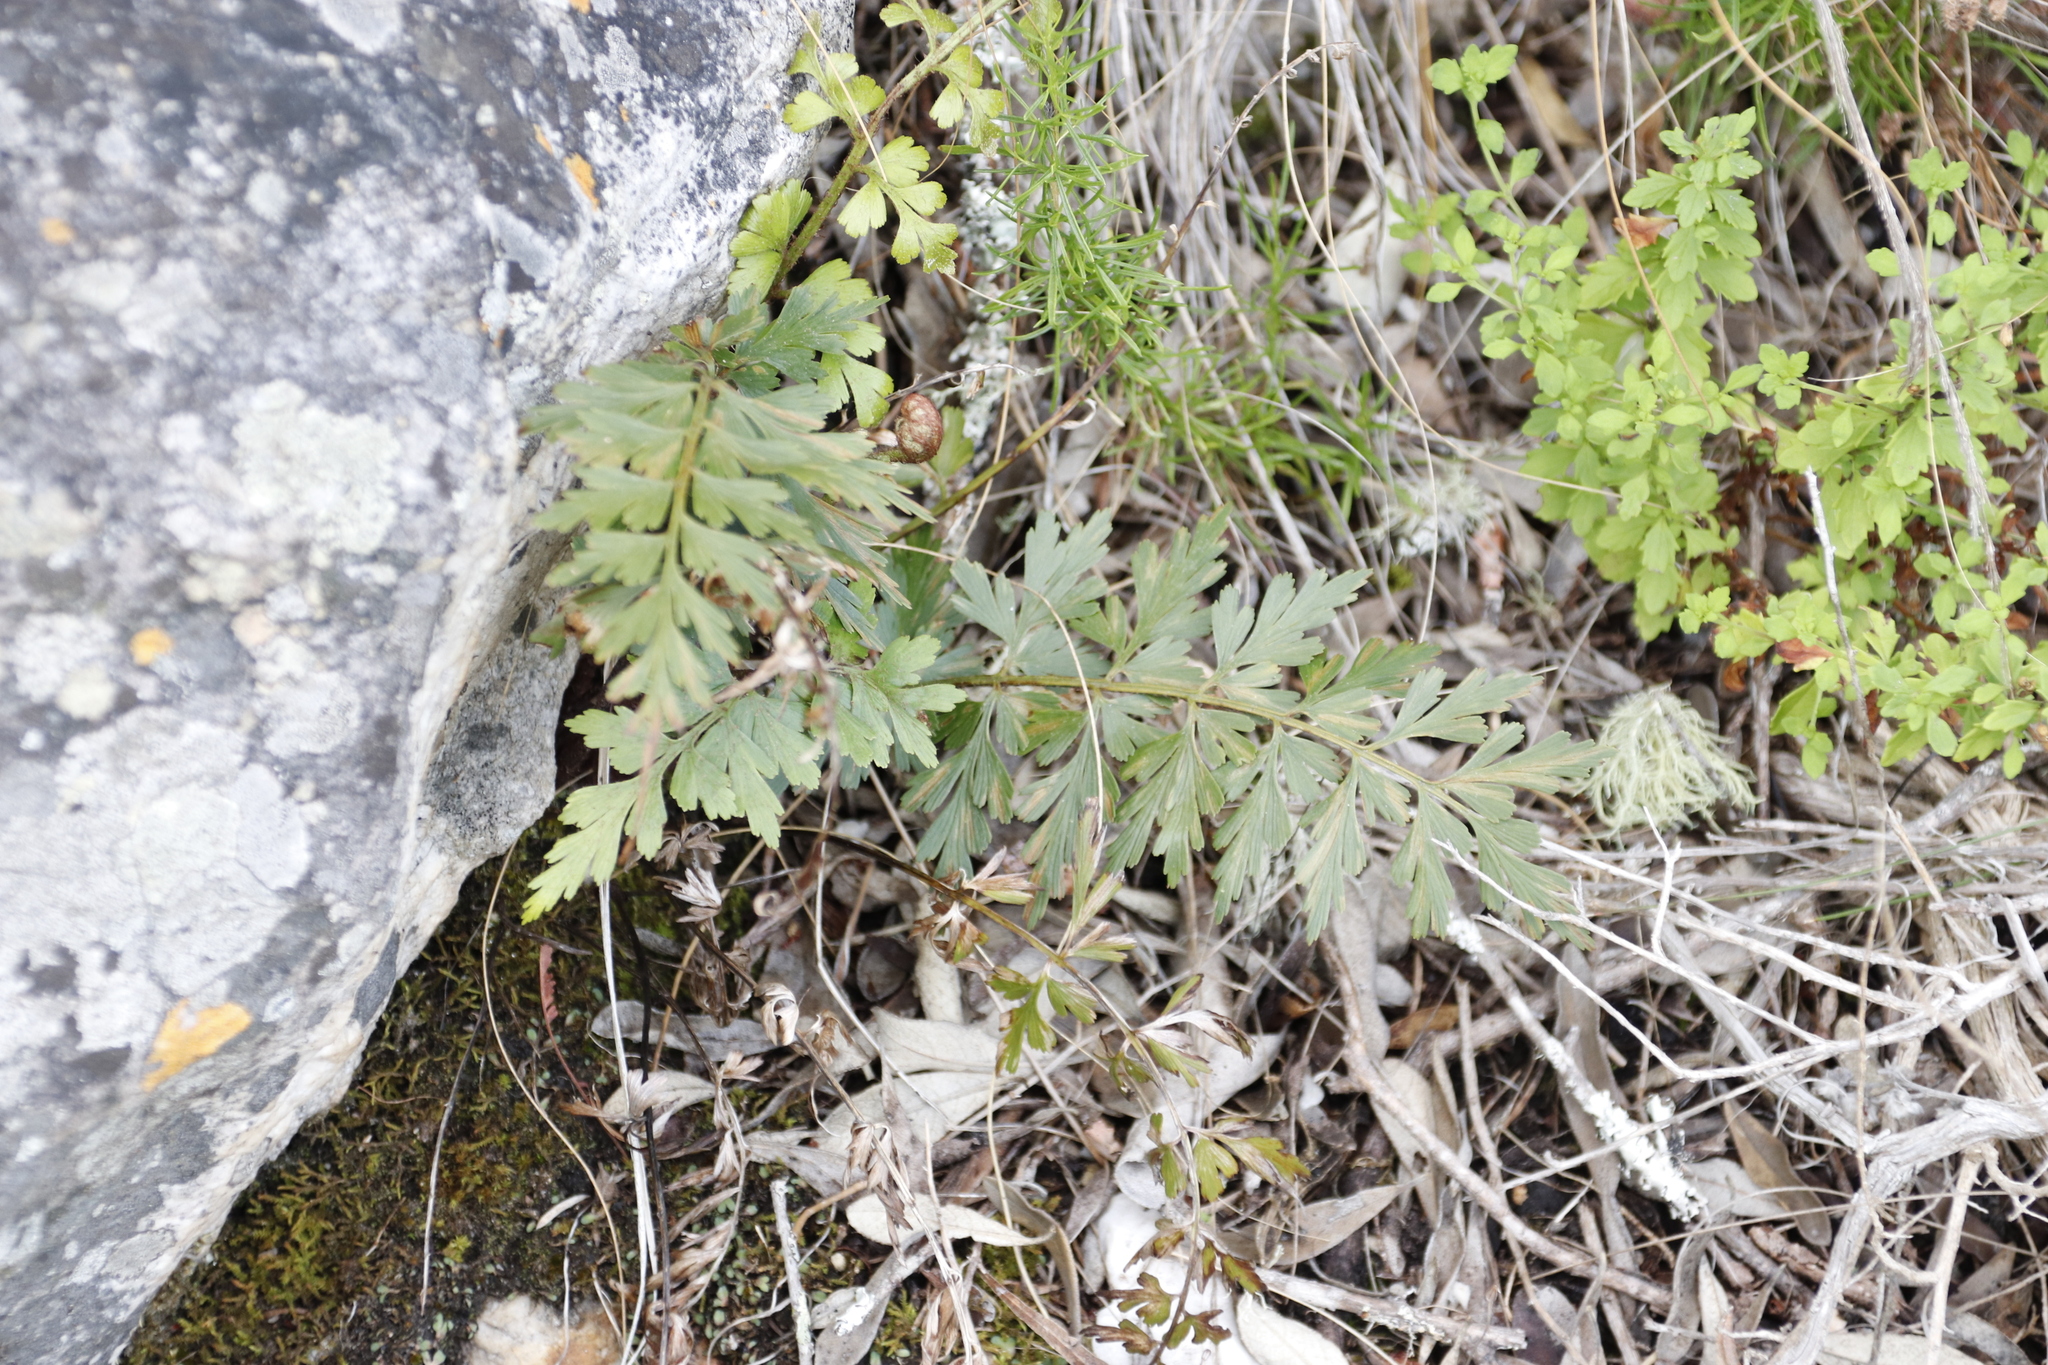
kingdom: Plantae
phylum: Tracheophyta
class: Polypodiopsida
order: Polypodiales
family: Aspleniaceae
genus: Asplenium
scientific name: Asplenium aethiopicum
